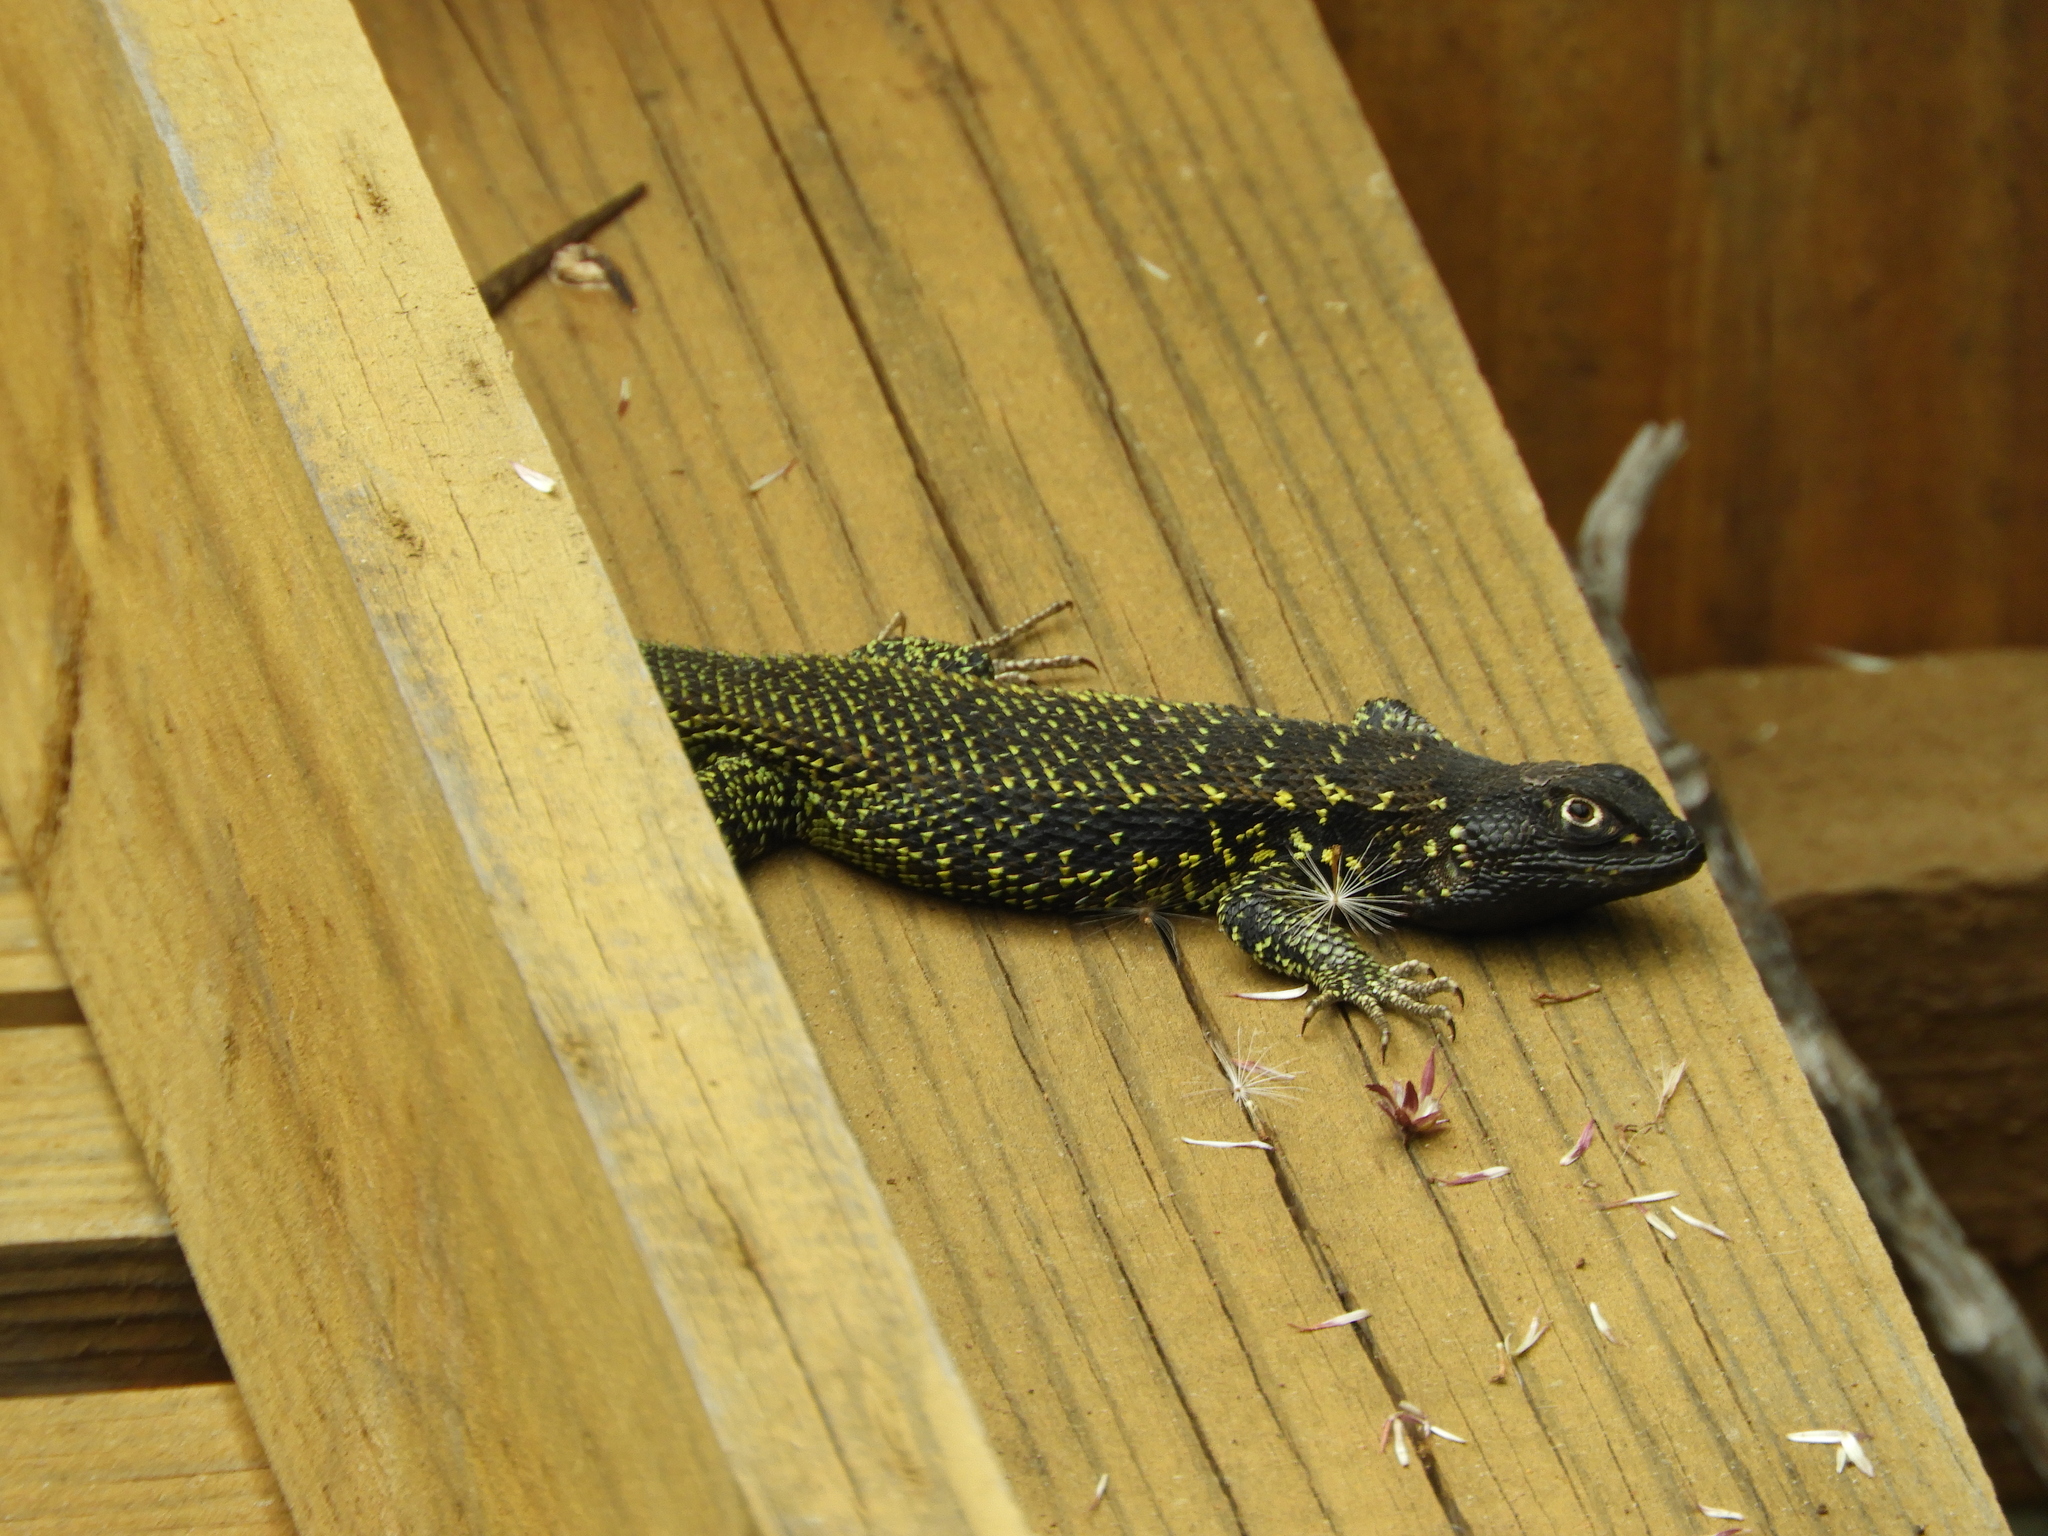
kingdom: Animalia
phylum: Chordata
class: Squamata
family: Liolaemidae
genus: Liolaemus
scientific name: Liolaemus zapallarensis
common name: Zapallaren tree iguana
